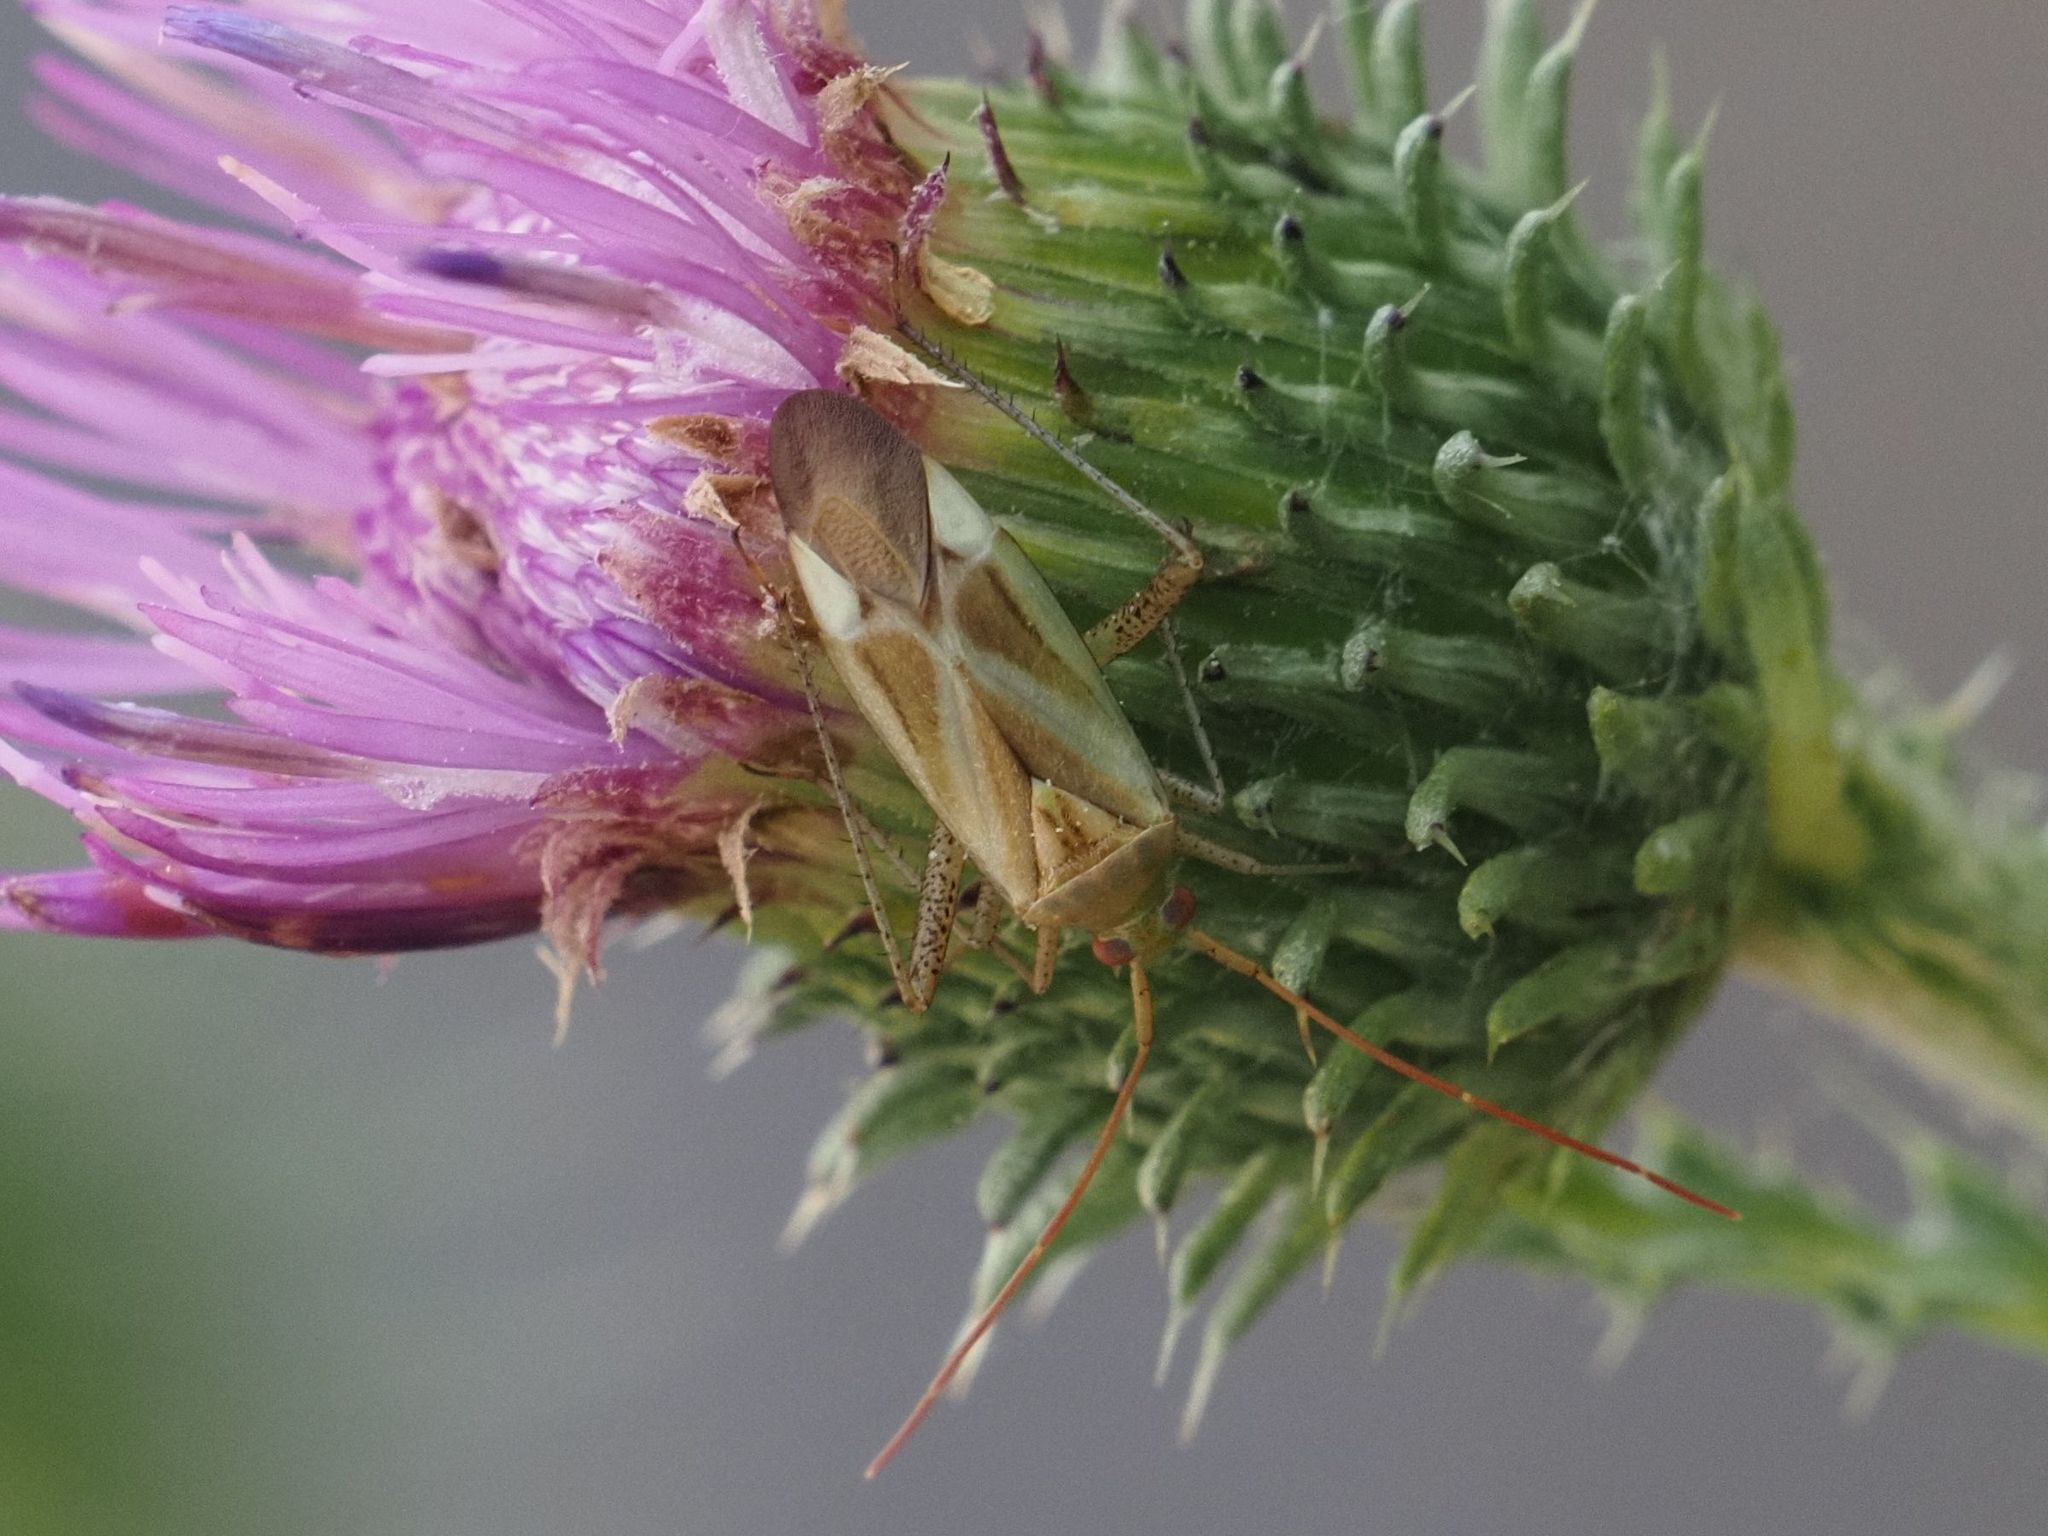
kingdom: Animalia
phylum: Arthropoda
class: Insecta
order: Hemiptera
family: Miridae
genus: Adelphocoris
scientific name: Adelphocoris lineolatus
